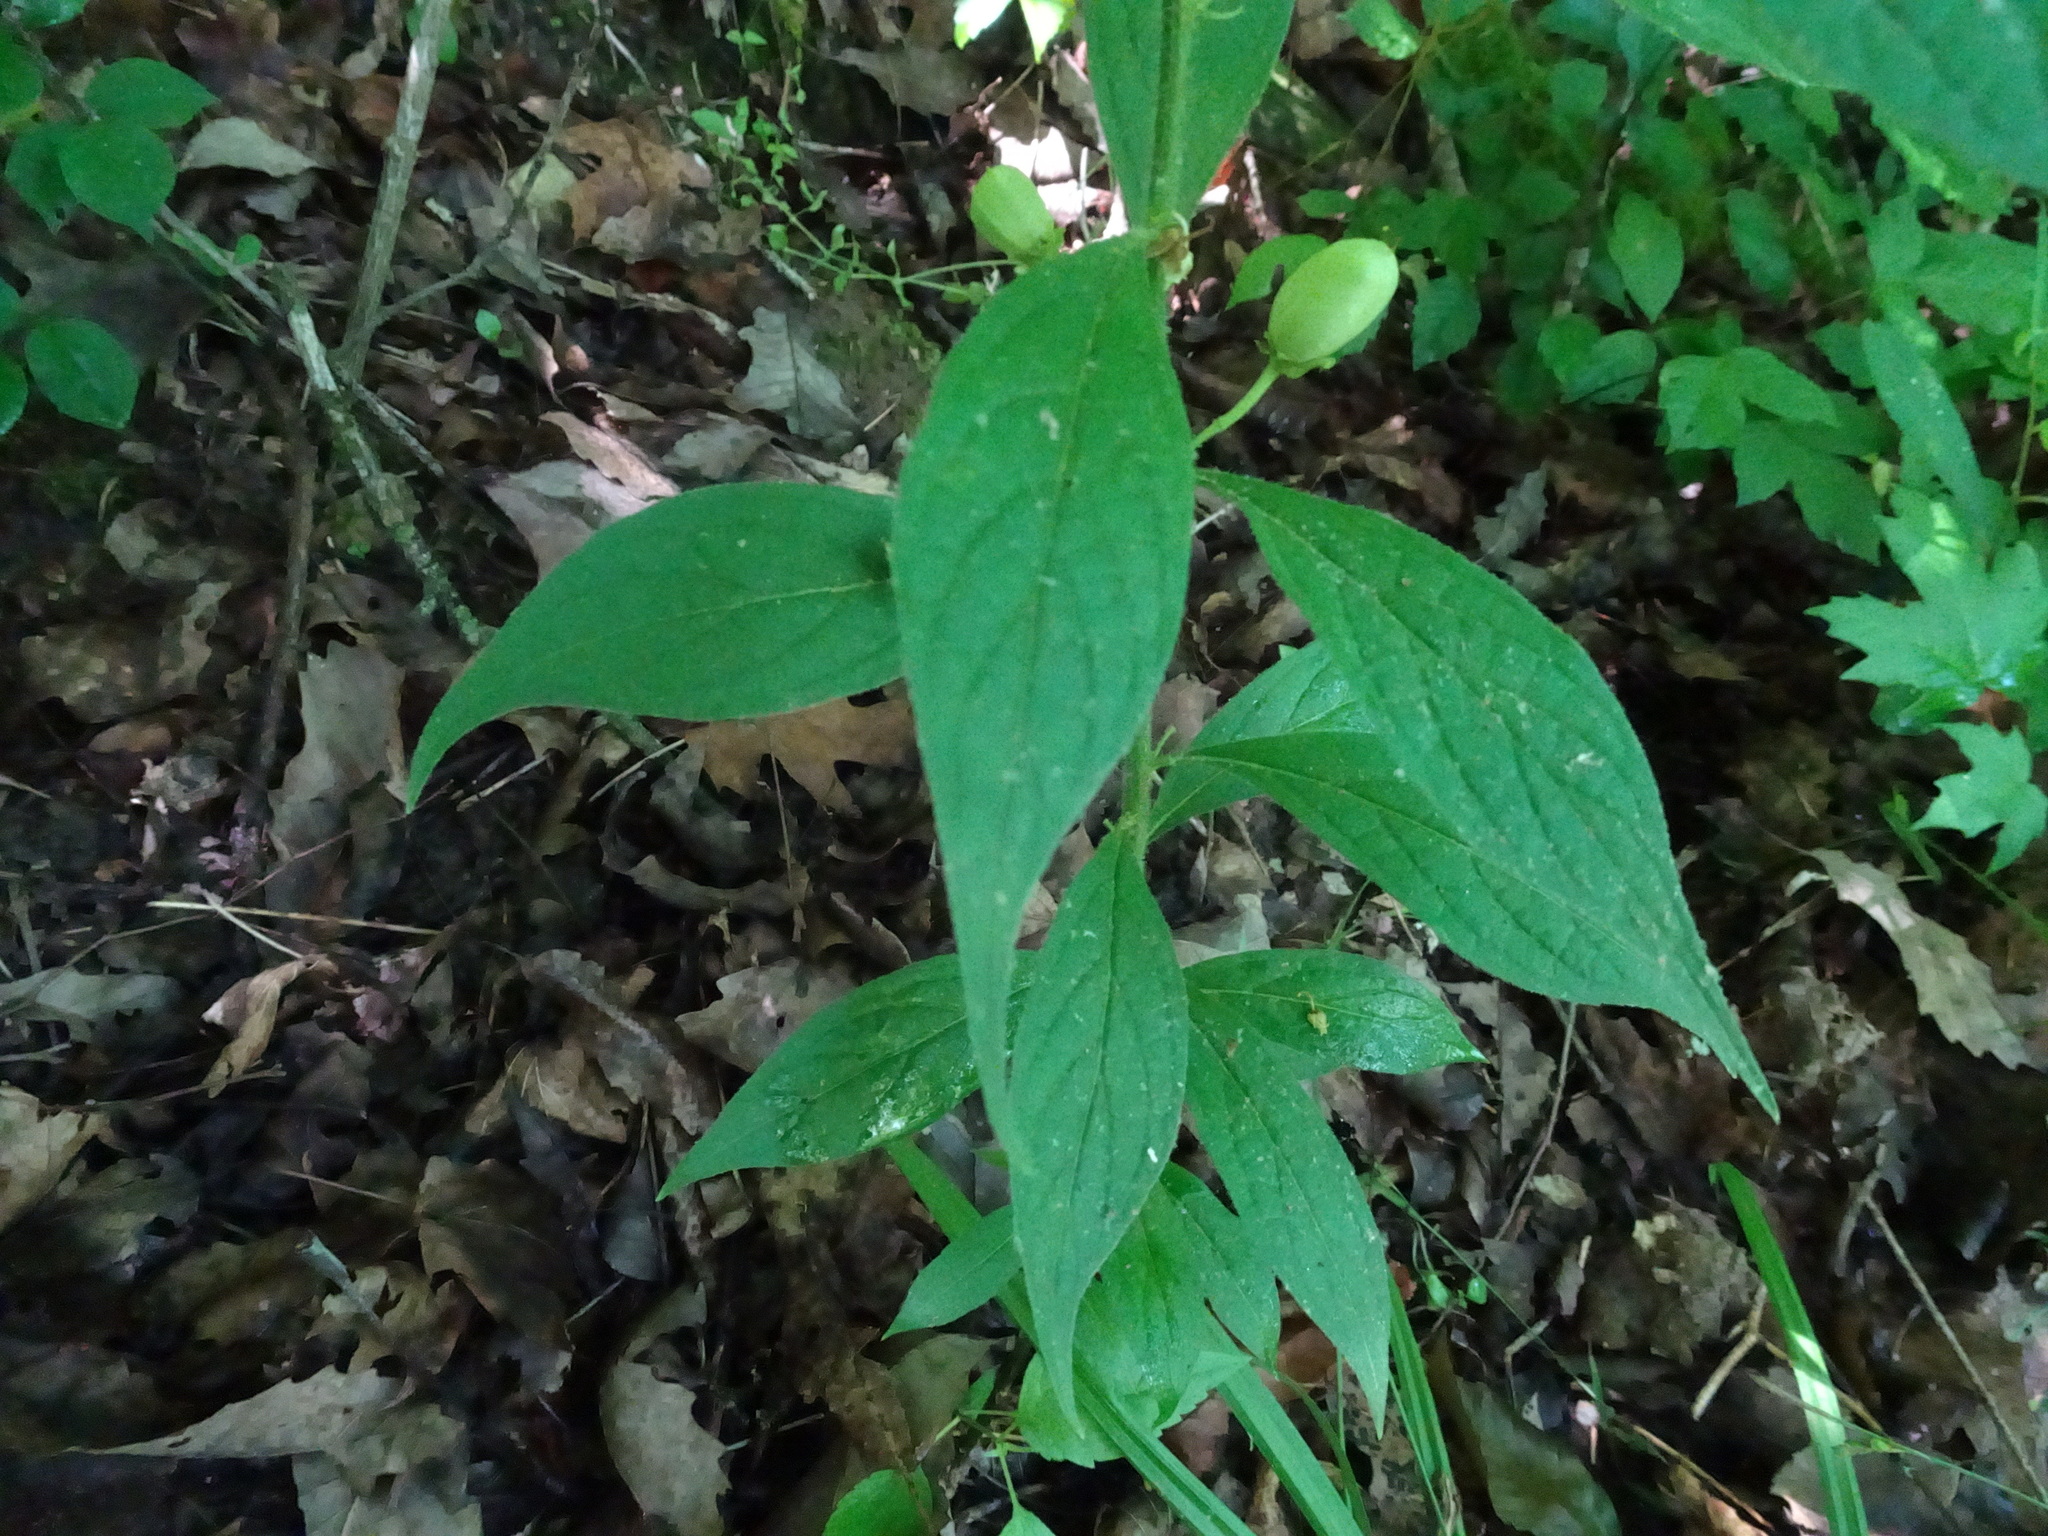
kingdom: Plantae
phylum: Tracheophyta
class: Magnoliopsida
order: Malpighiales
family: Violaceae
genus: Cubelium
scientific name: Cubelium concolor
